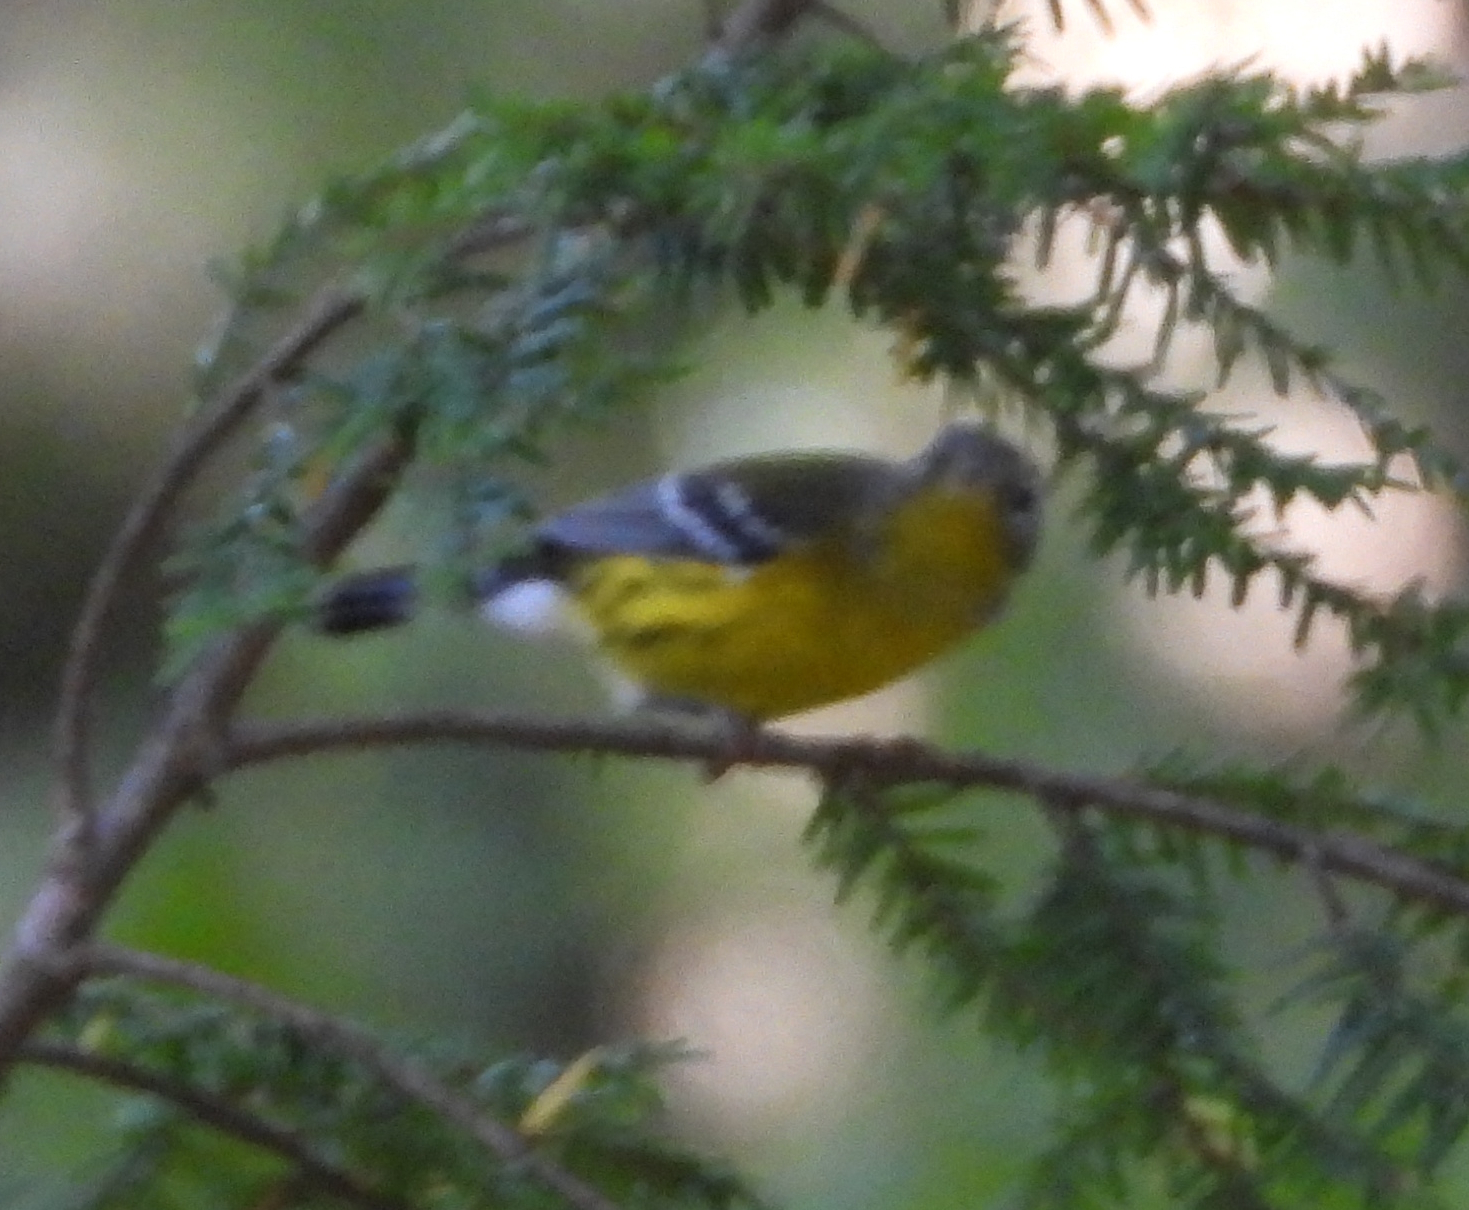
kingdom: Animalia
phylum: Chordata
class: Aves
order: Passeriformes
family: Parulidae
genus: Setophaga
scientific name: Setophaga magnolia
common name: Magnolia warbler
